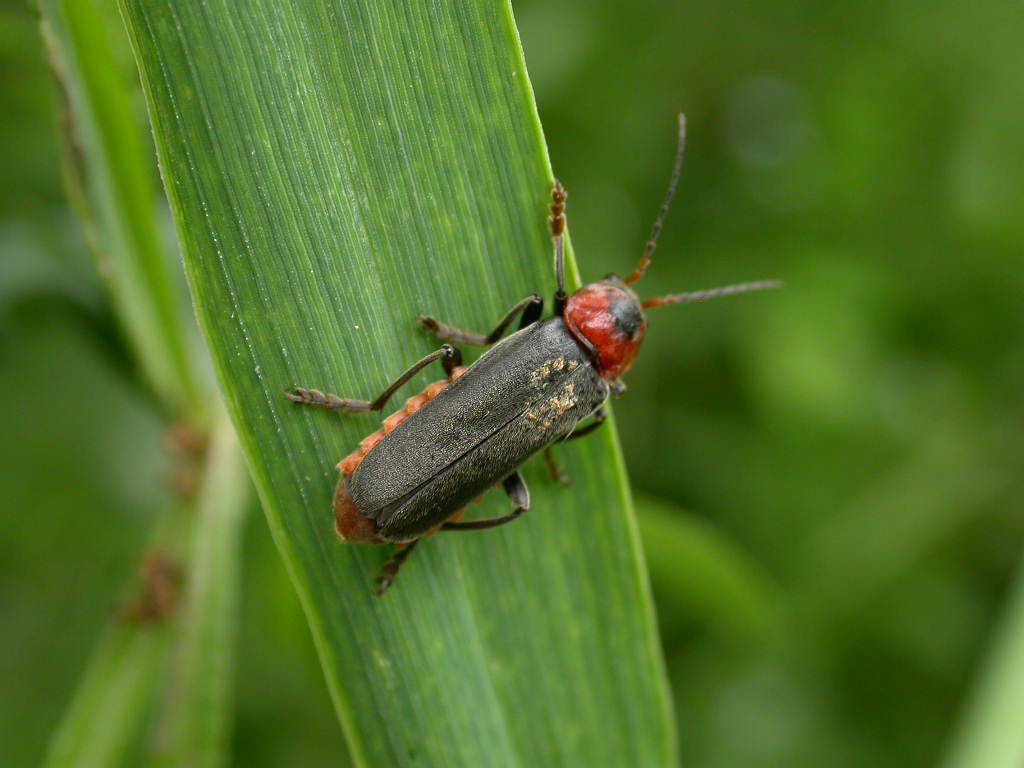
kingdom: Animalia
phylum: Arthropoda
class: Insecta
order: Coleoptera
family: Cantharidae
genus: Cantharis
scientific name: Cantharis fusca
